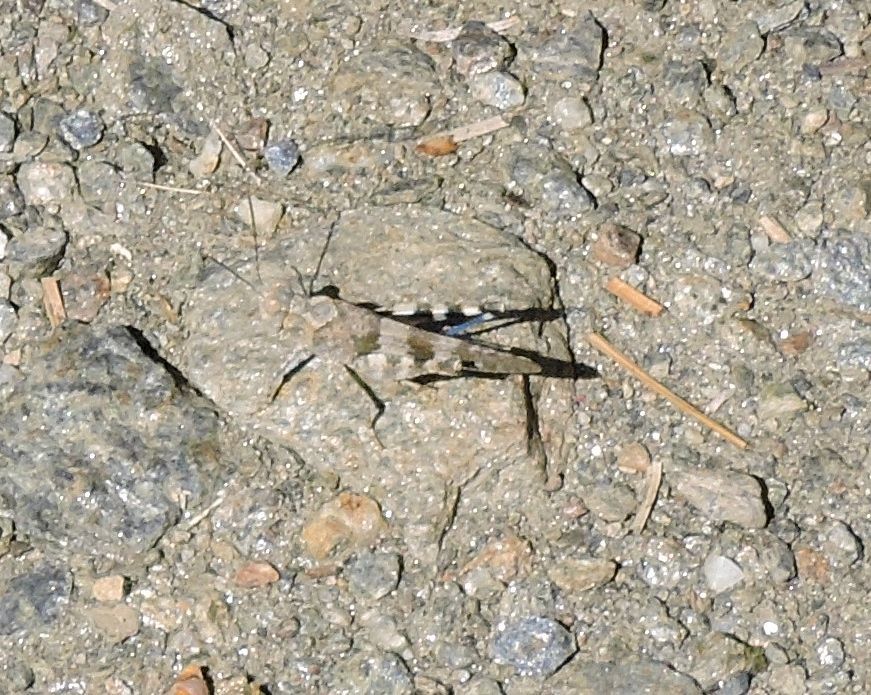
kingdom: Animalia
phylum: Arthropoda
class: Insecta
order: Orthoptera
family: Acrididae
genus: Trimerotropis
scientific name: Trimerotropis fontana
